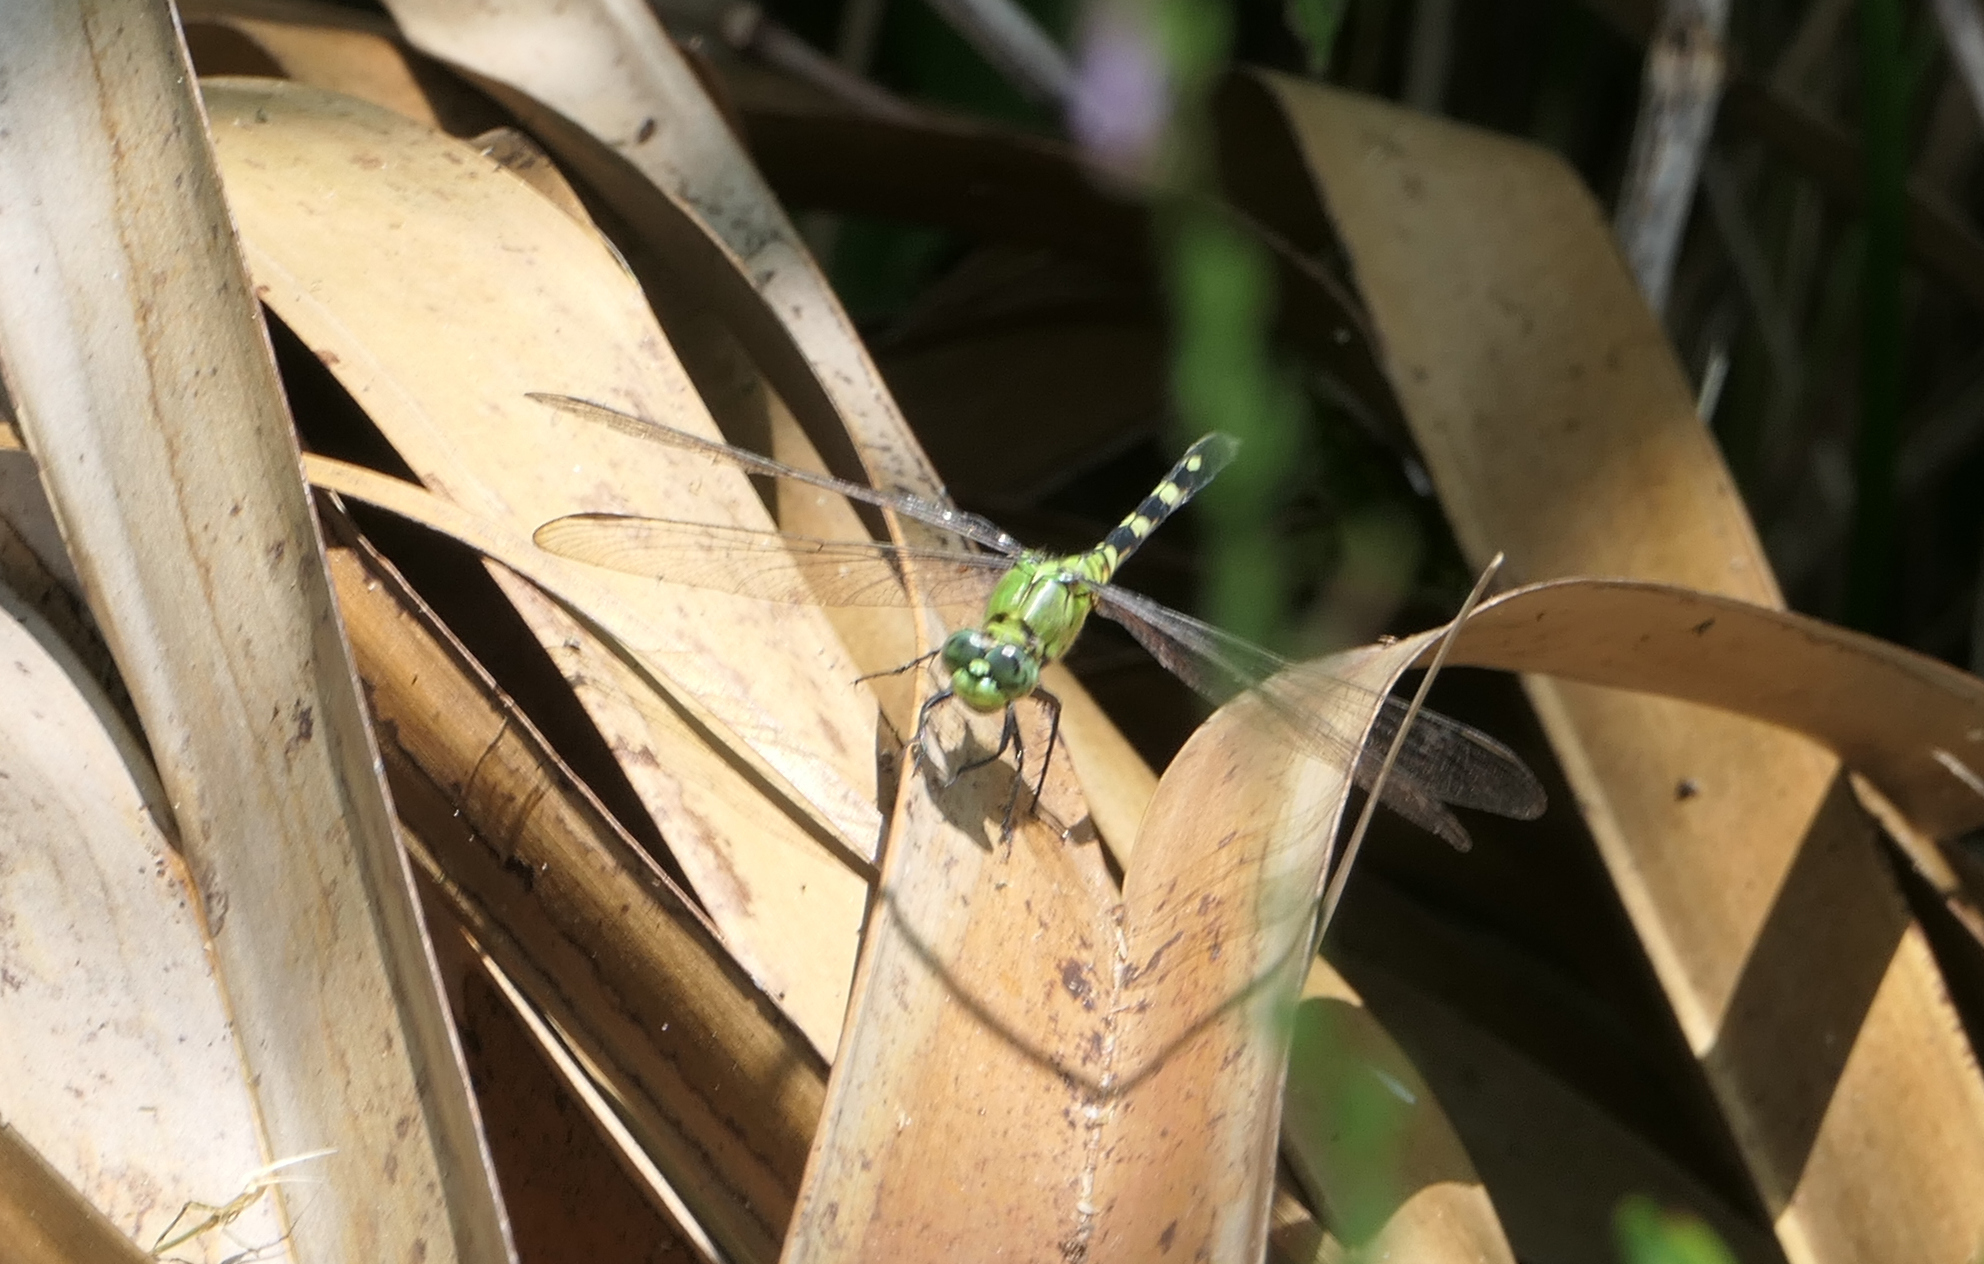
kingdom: Animalia
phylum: Arthropoda
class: Insecta
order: Odonata
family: Libellulidae
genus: Erythemis
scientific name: Erythemis simplicicollis
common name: Eastern pondhawk
